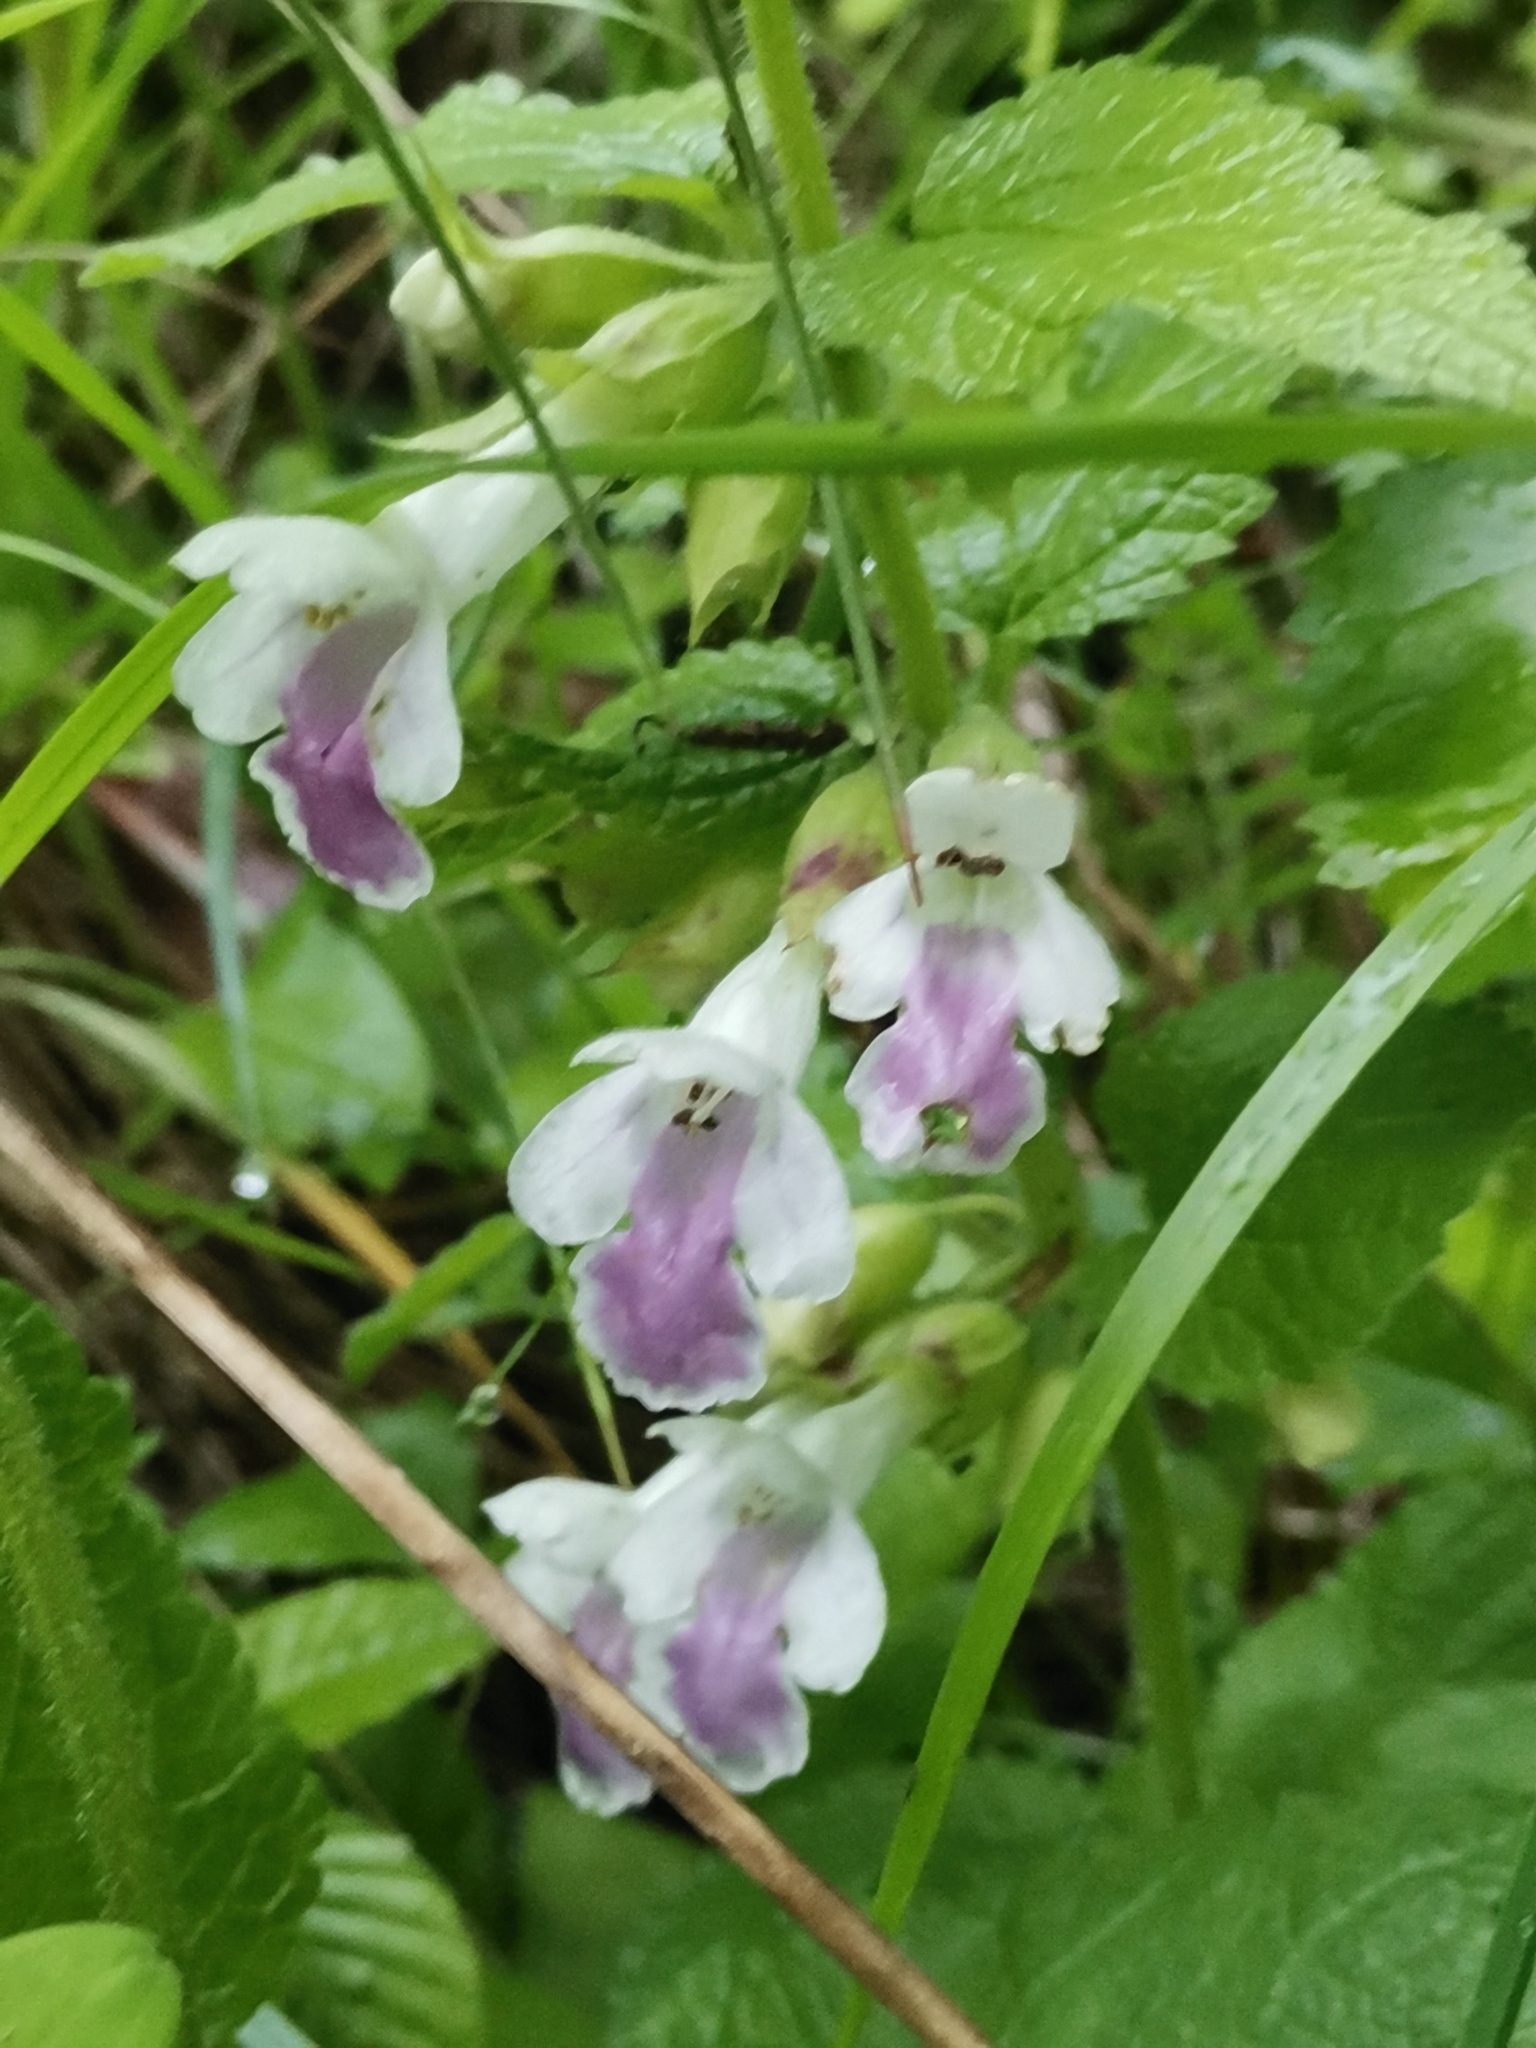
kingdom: Plantae
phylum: Tracheophyta
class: Magnoliopsida
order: Lamiales
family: Lamiaceae
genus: Melittis
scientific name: Melittis melissophyllum
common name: Bastard balm
